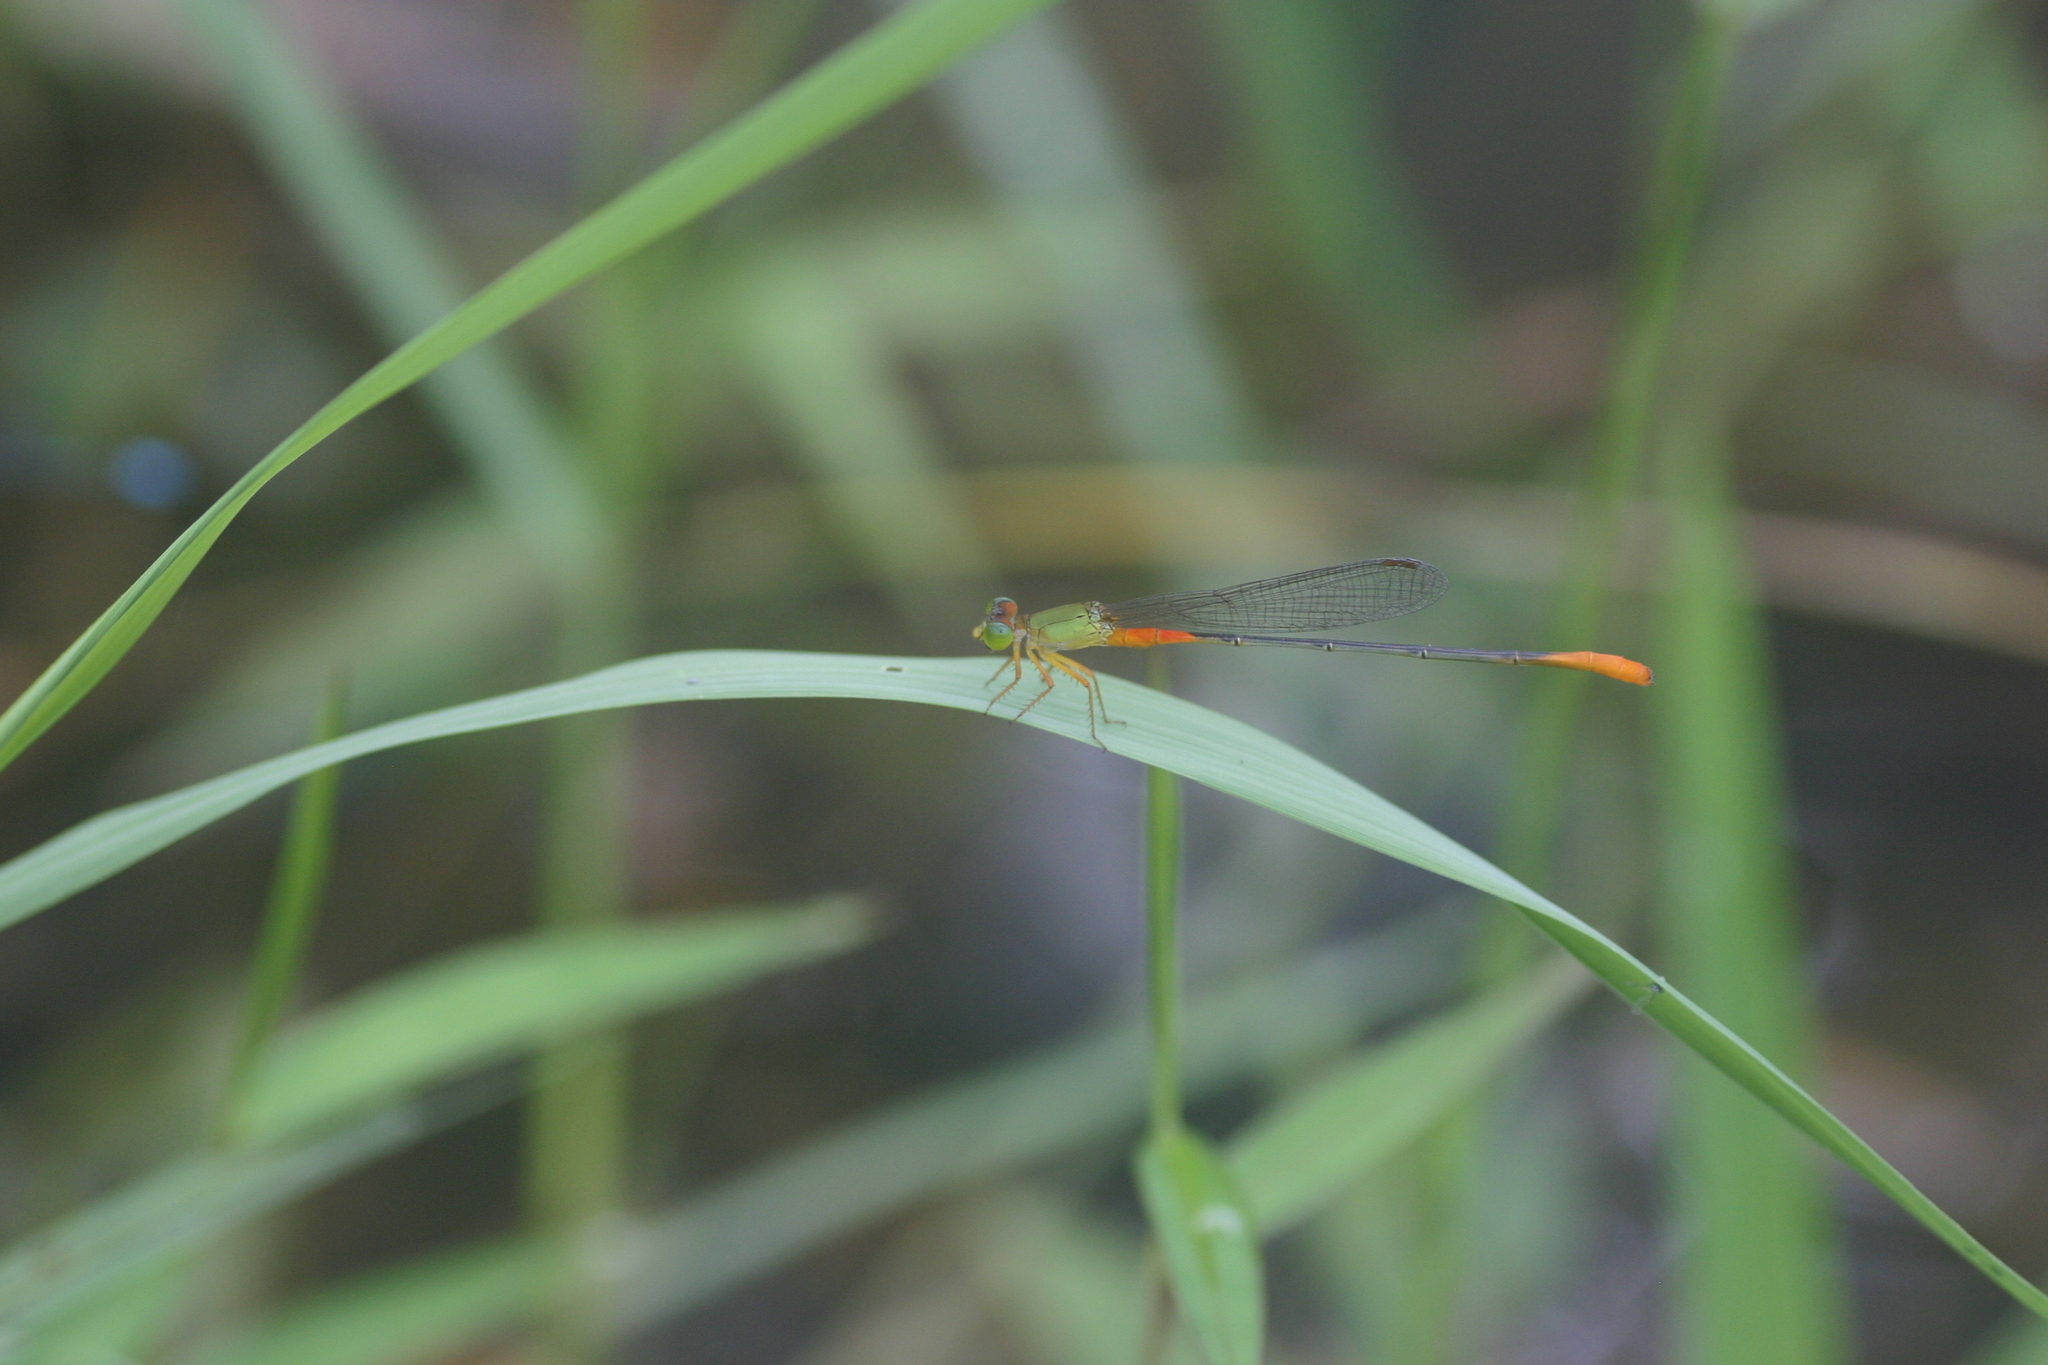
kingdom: Animalia
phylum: Arthropoda
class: Insecta
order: Odonata
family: Coenagrionidae
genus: Ceriagrion
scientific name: Ceriagrion cerinorubellum
